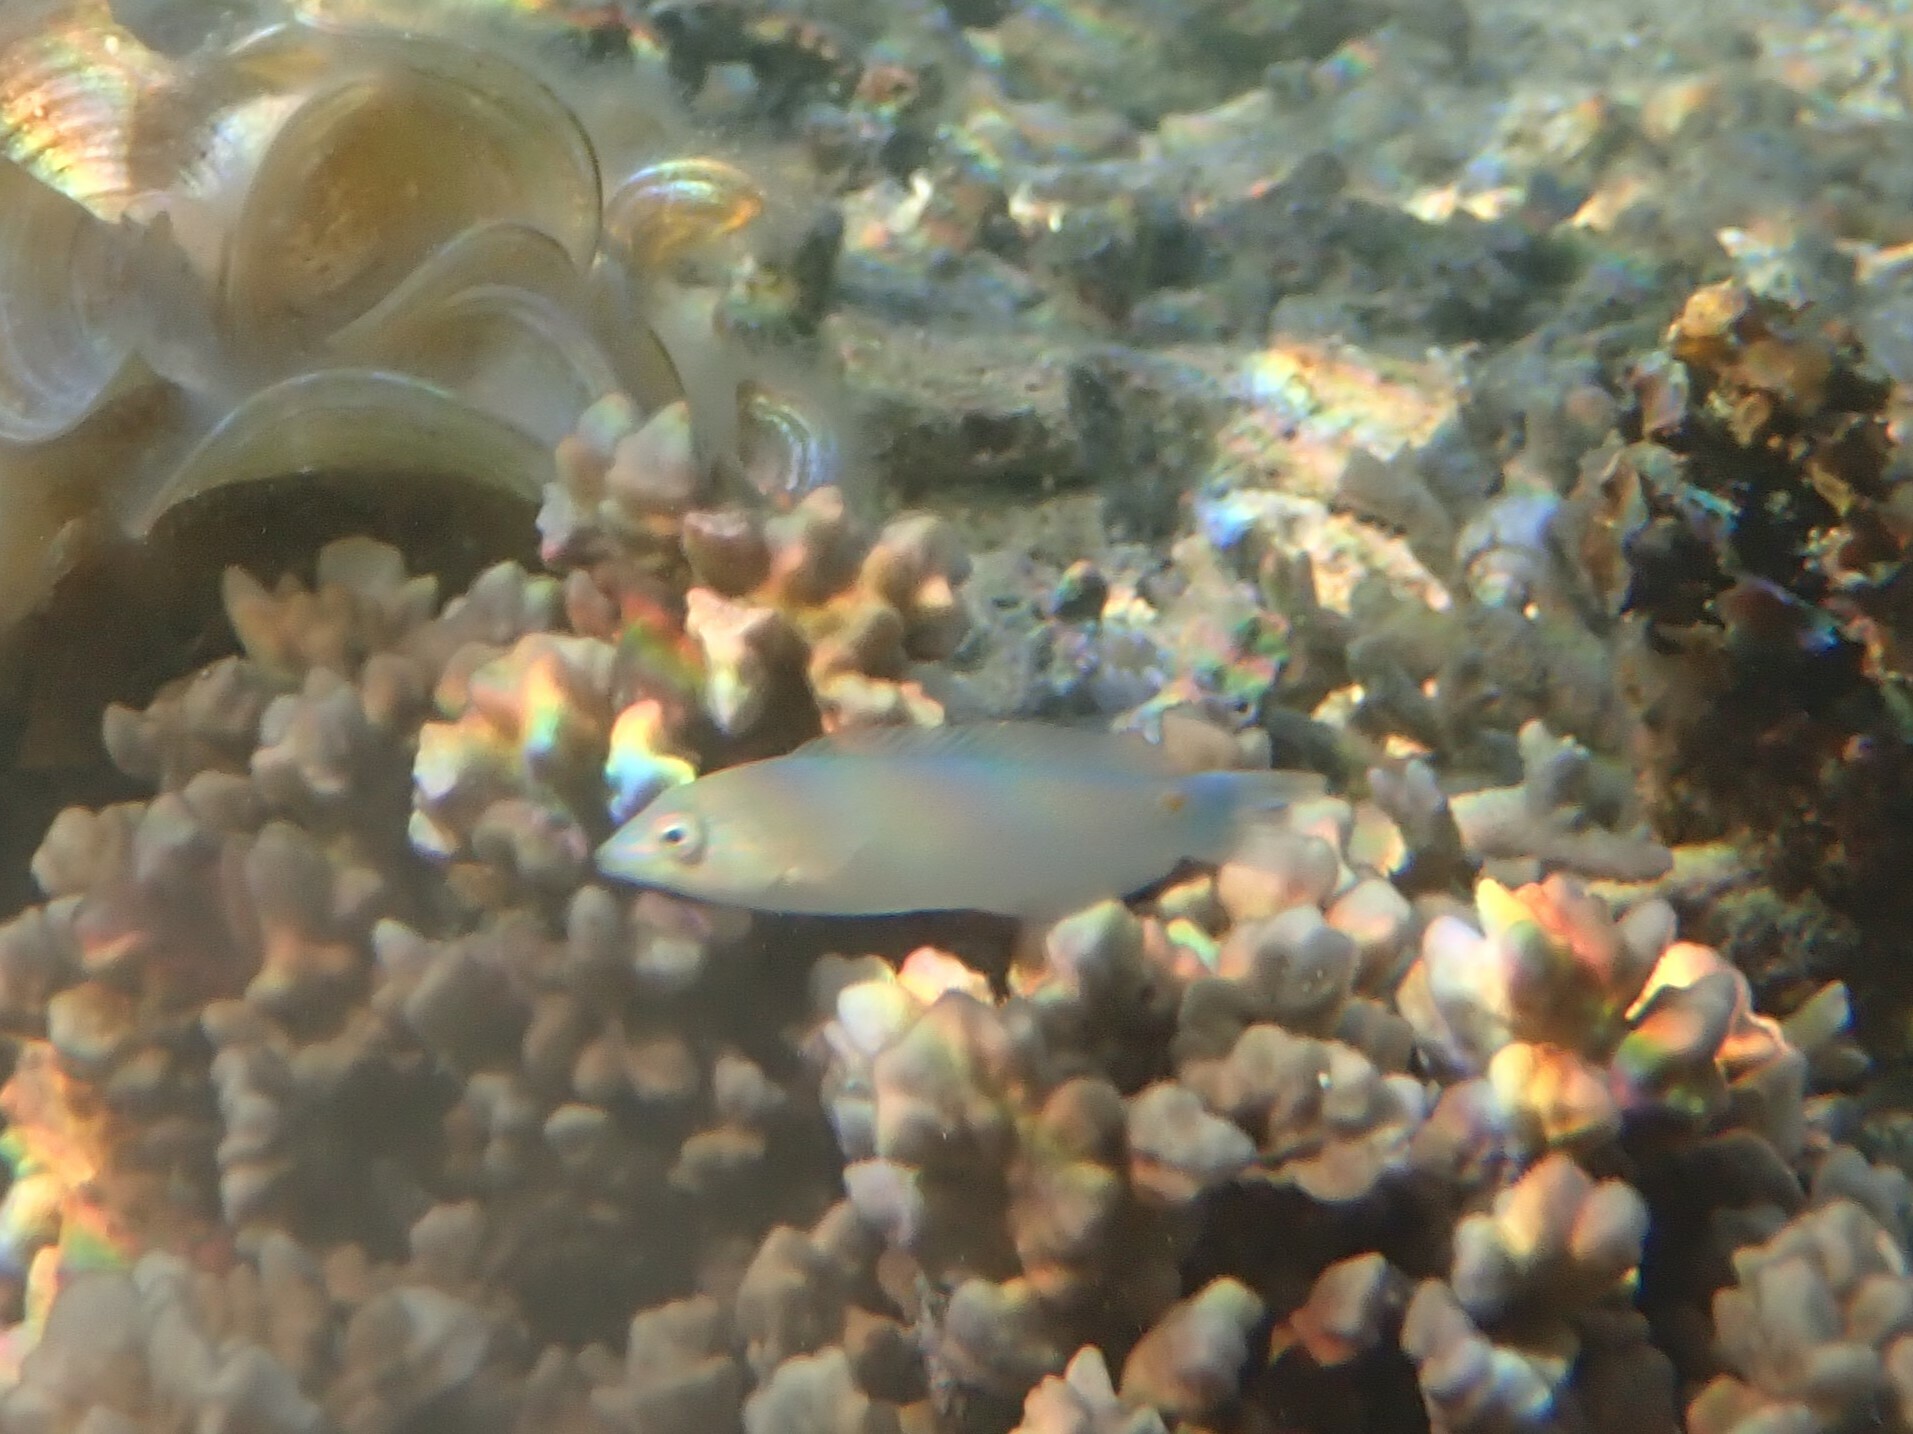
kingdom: Animalia
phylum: Chordata
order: Perciformes
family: Labridae
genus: Halichoeres
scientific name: Halichoeres trimaculatus
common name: Three-spot wrasse
